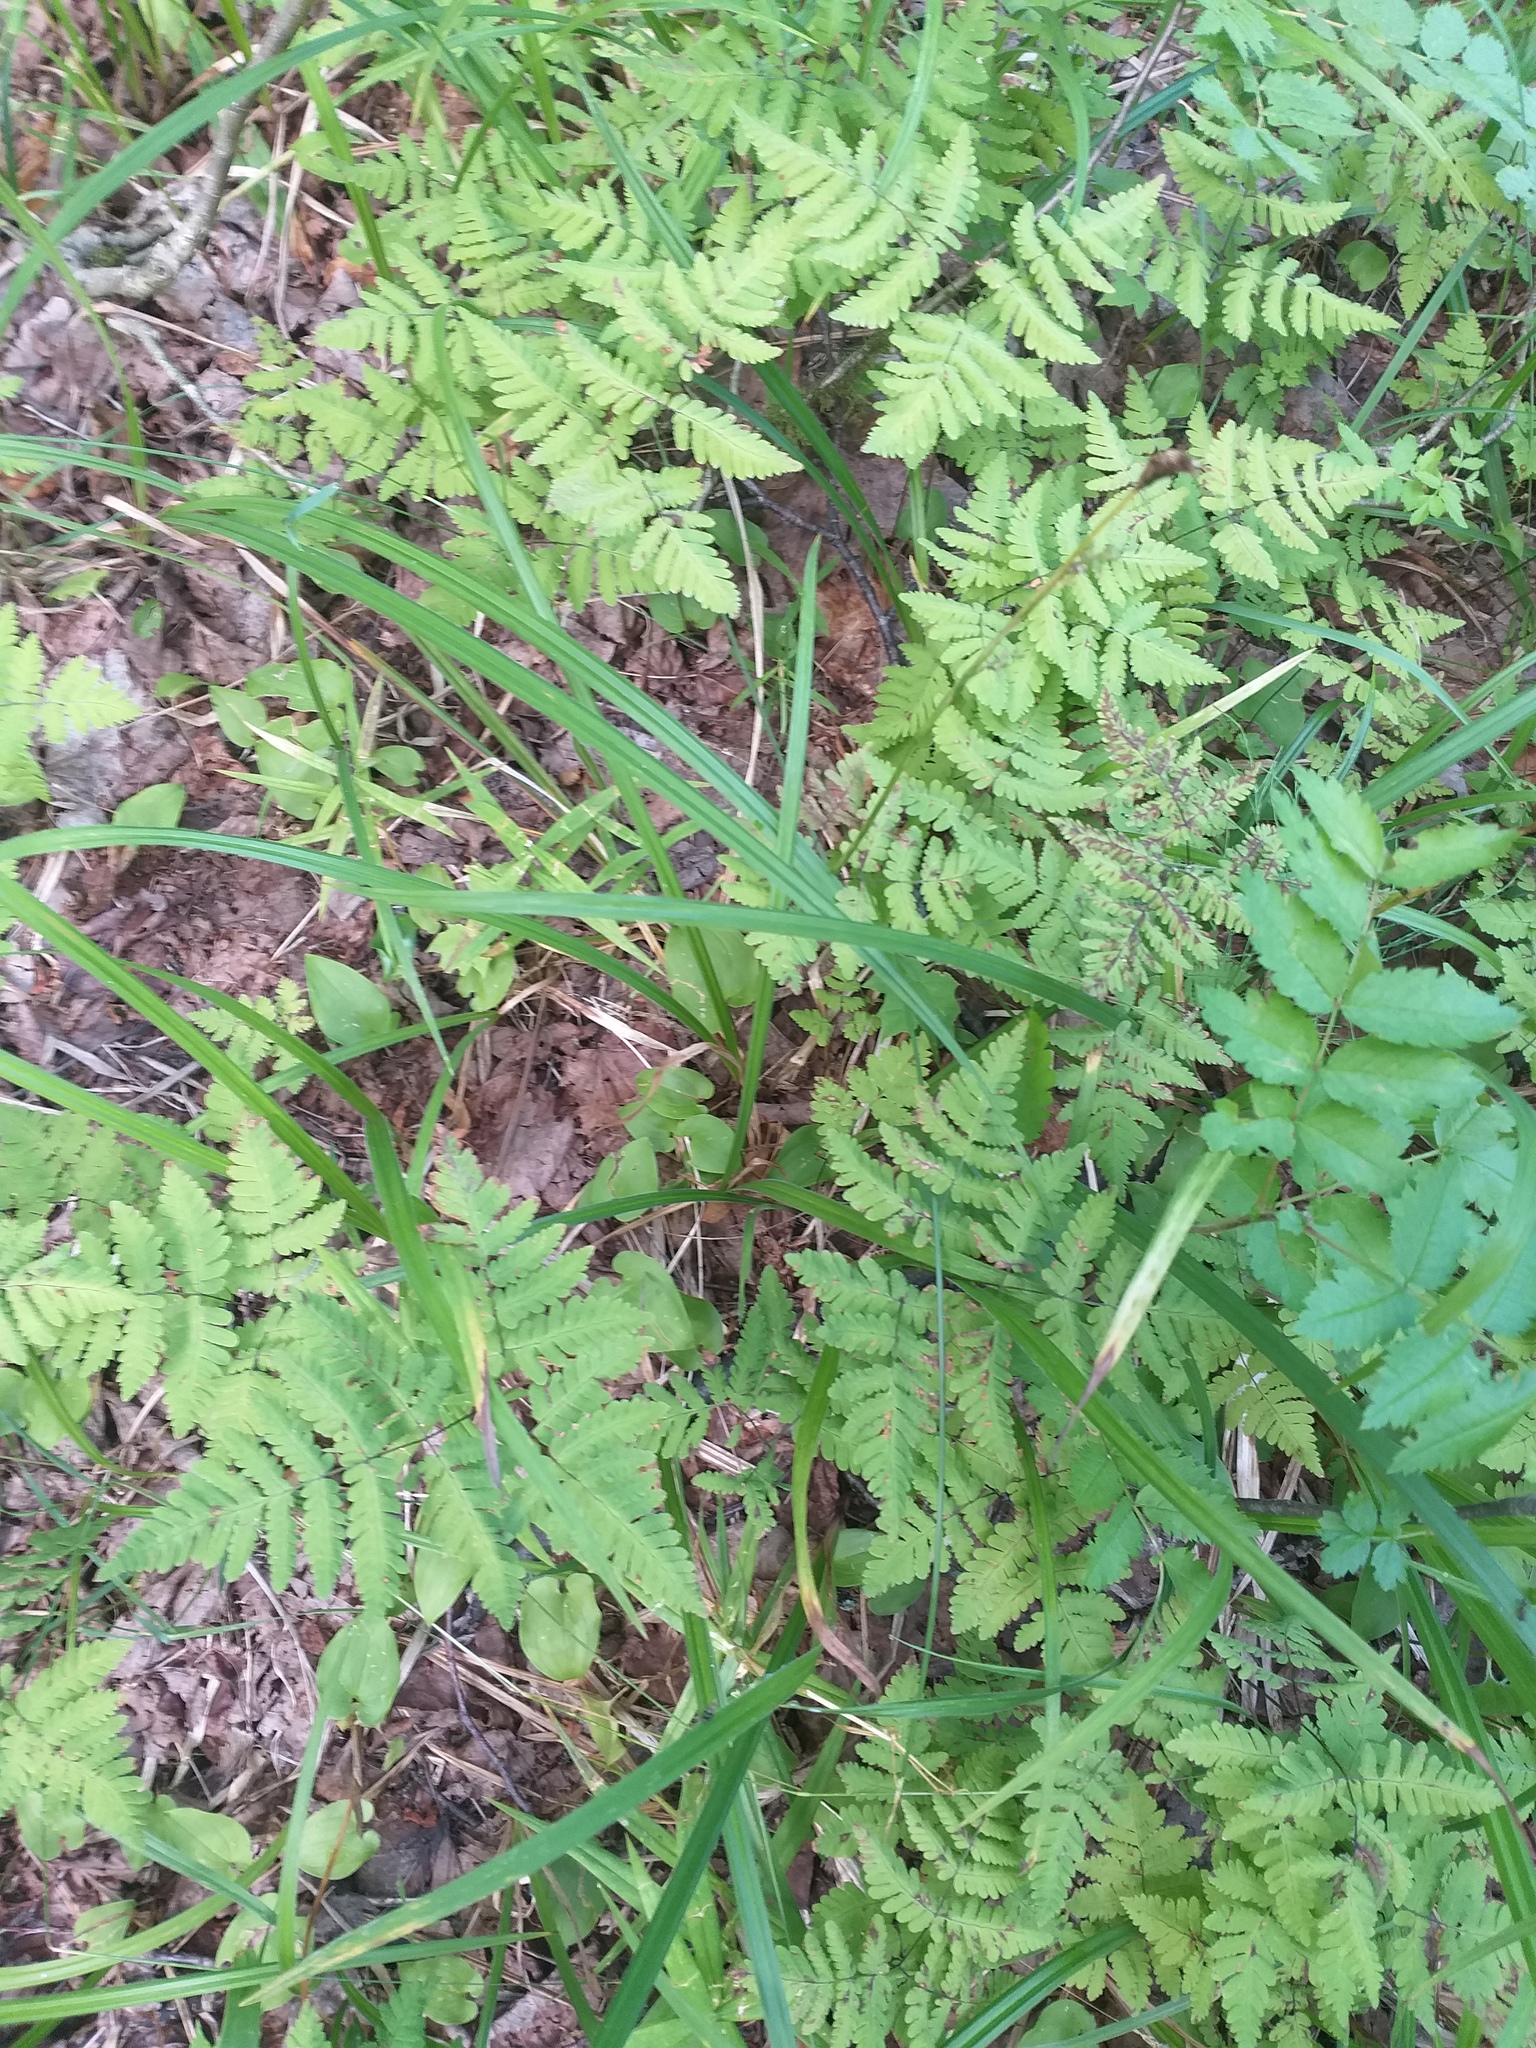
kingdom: Plantae
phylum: Tracheophyta
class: Polypodiopsida
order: Polypodiales
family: Cystopteridaceae
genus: Gymnocarpium
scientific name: Gymnocarpium dryopteris
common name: Oak fern
